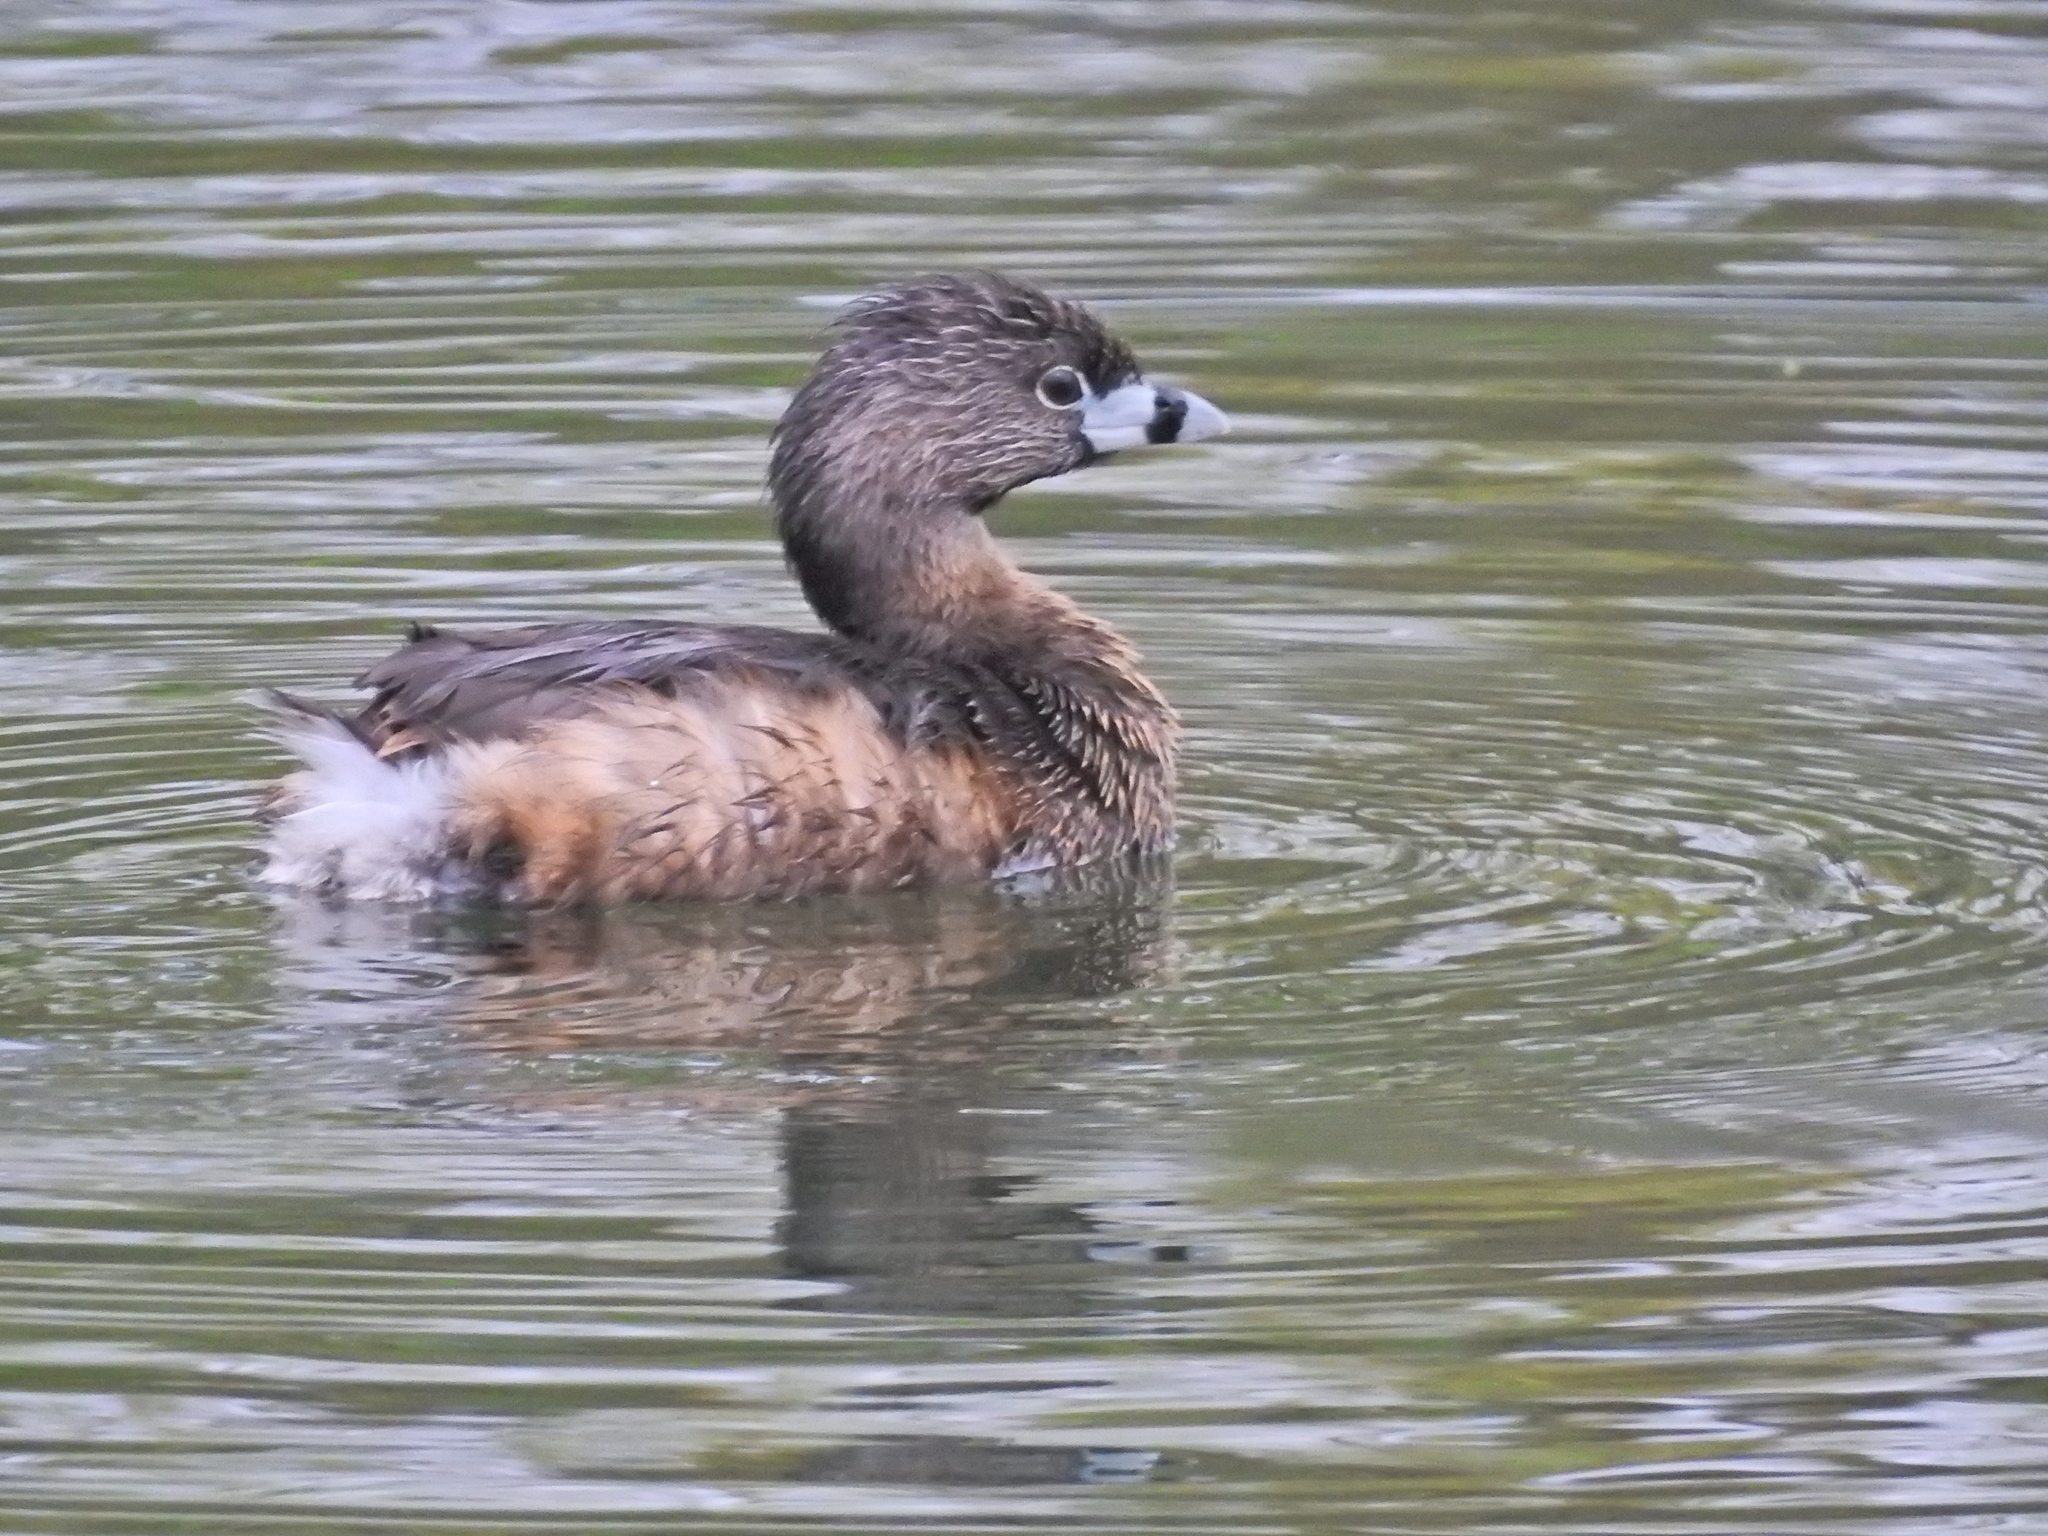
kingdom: Animalia
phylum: Chordata
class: Aves
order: Podicipediformes
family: Podicipedidae
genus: Podilymbus
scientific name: Podilymbus podiceps
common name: Pied-billed grebe
